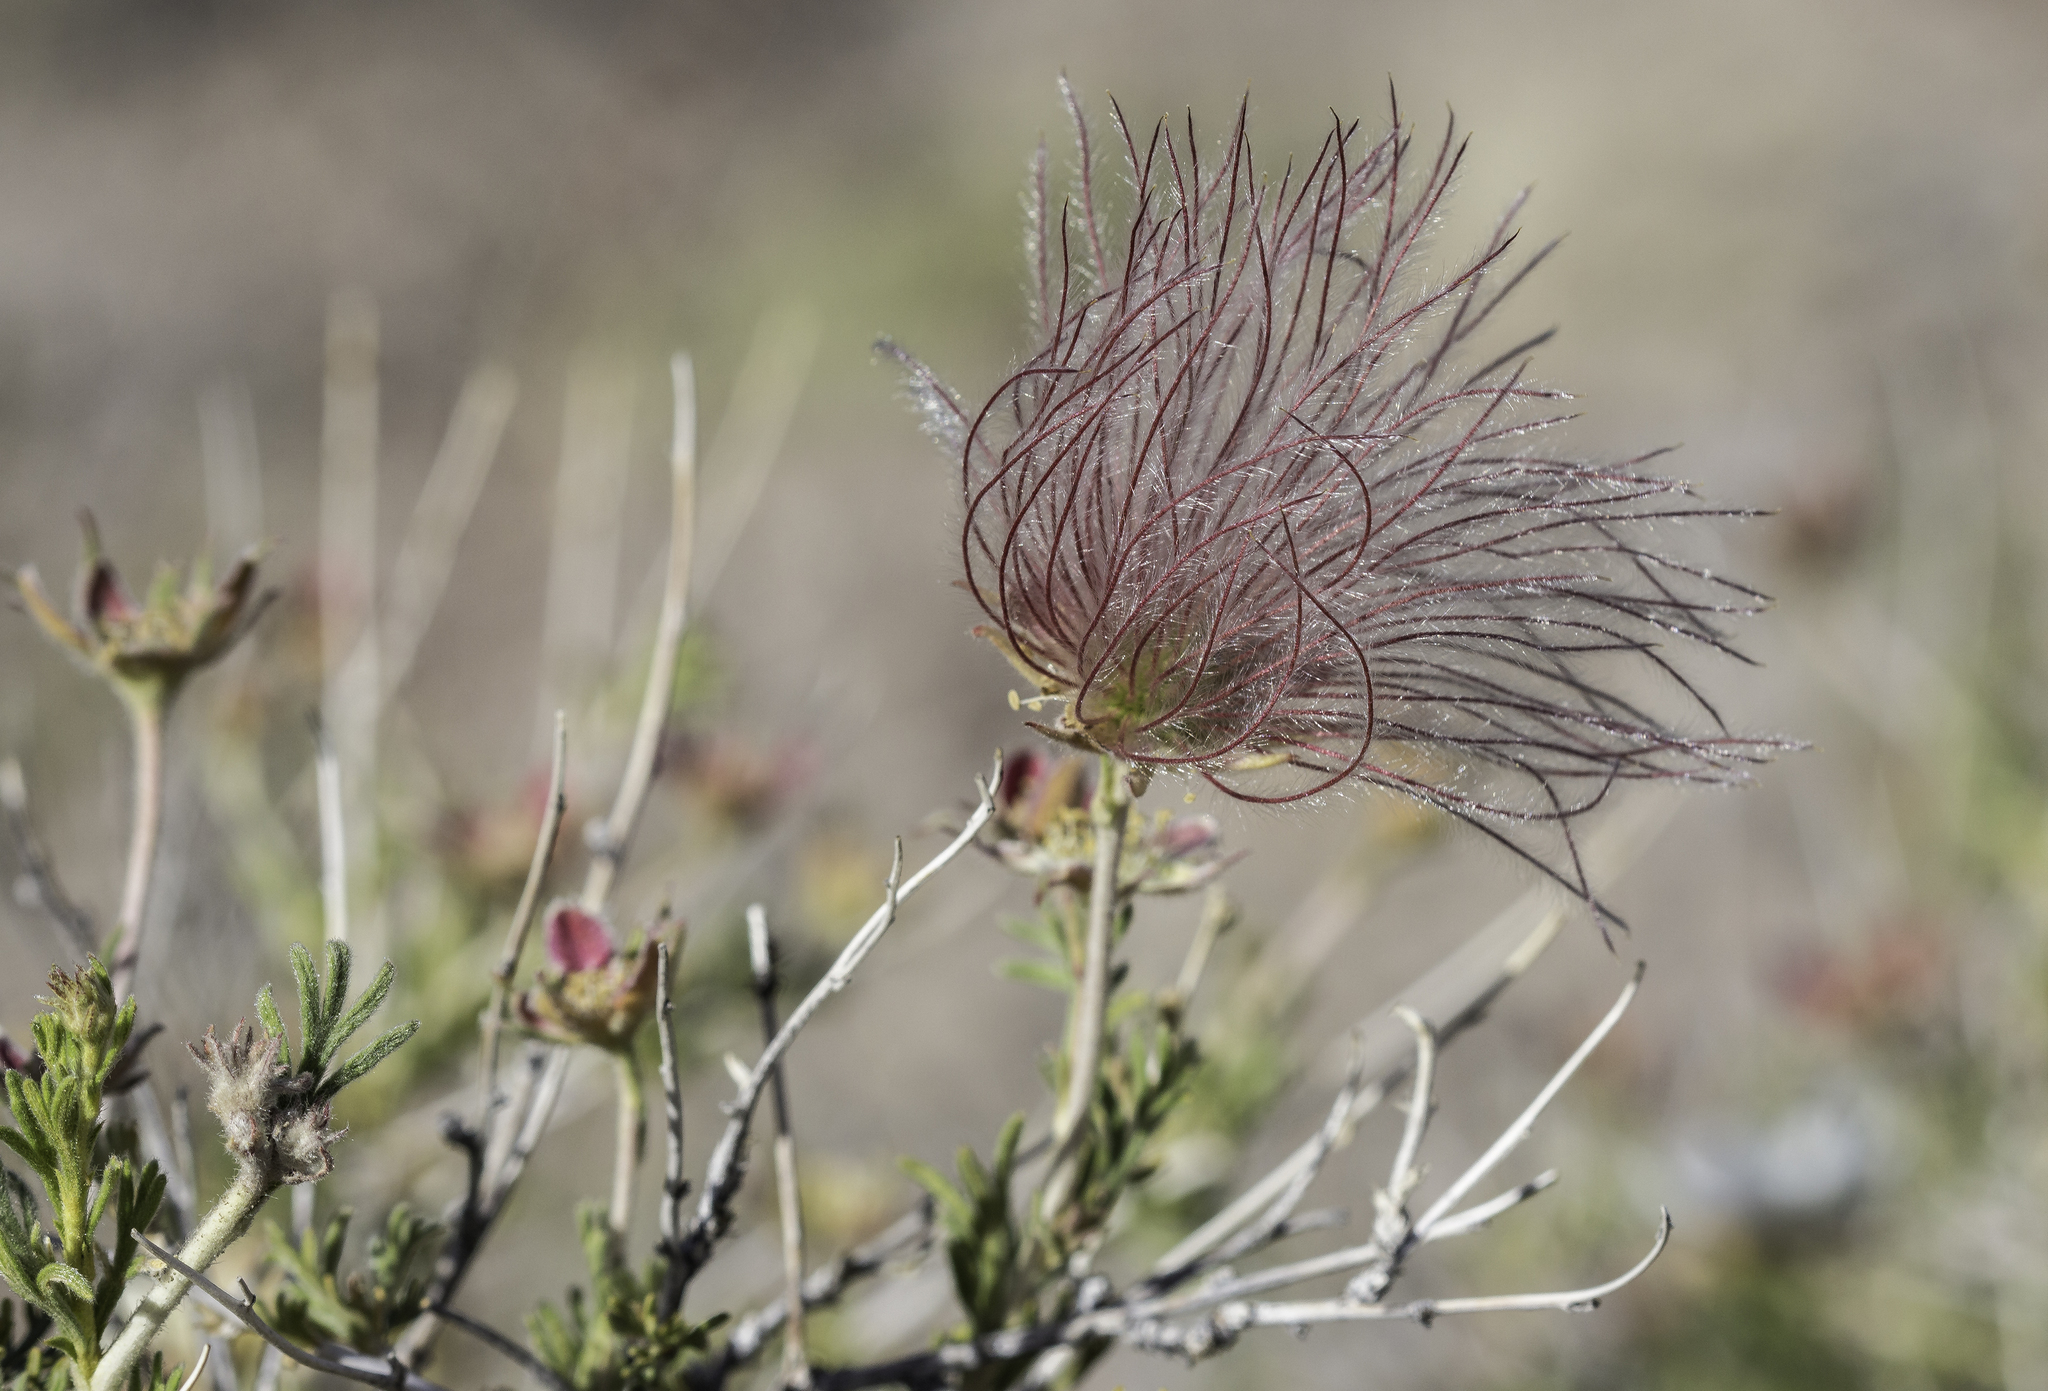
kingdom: Plantae
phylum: Tracheophyta
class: Magnoliopsida
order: Rosales
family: Rosaceae
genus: Fallugia
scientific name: Fallugia paradoxa
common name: Apache-plume
